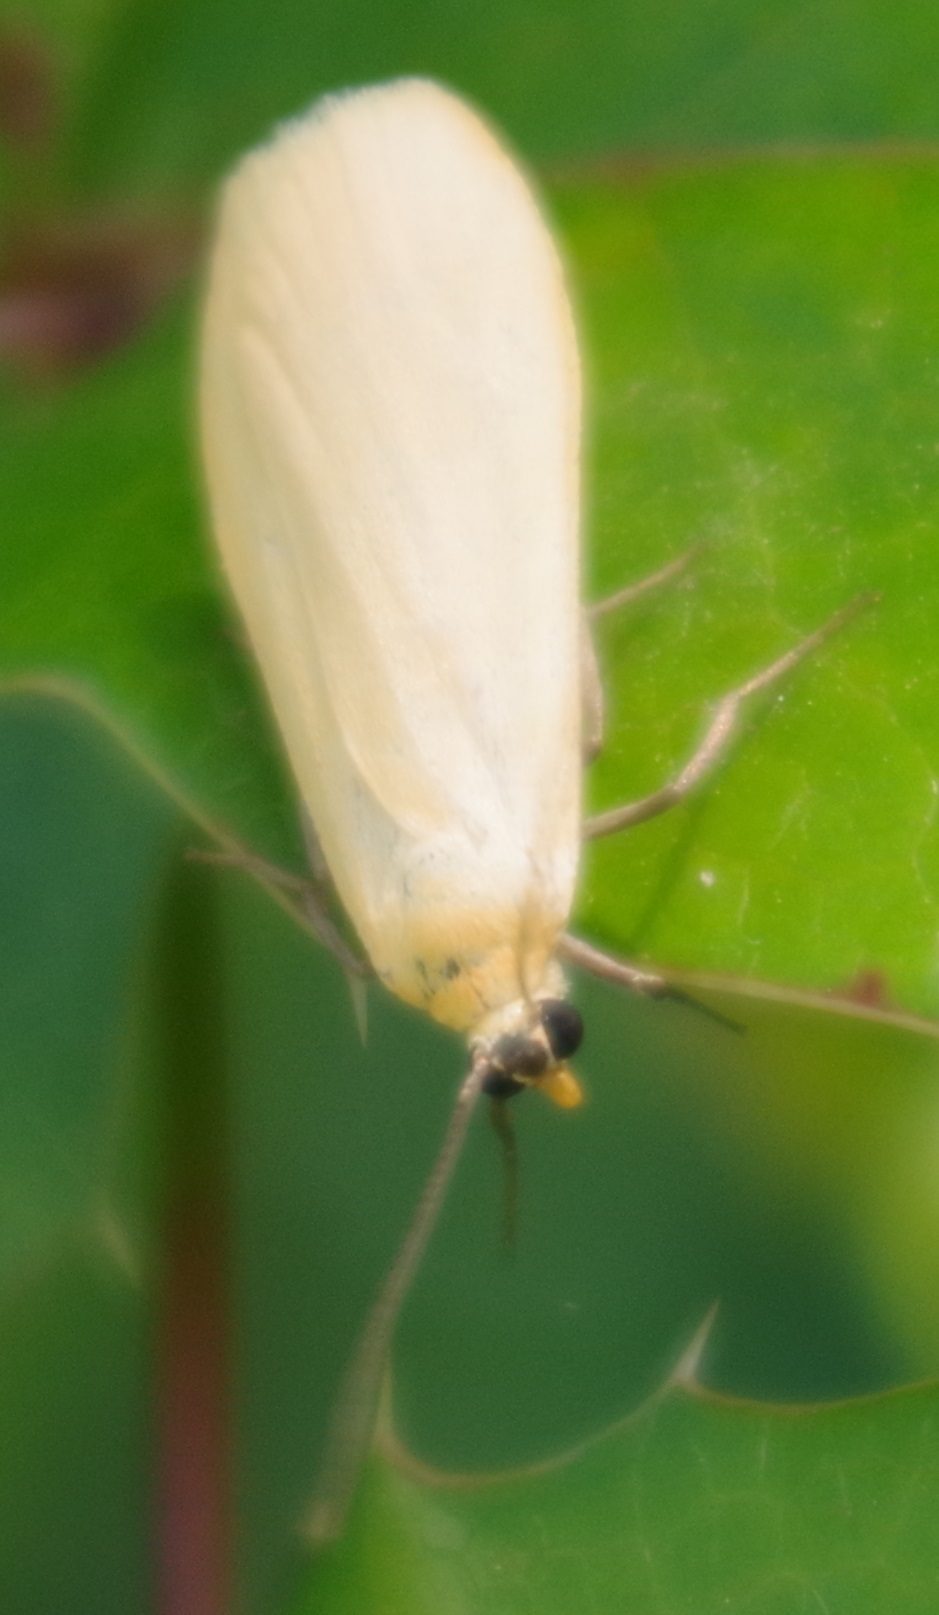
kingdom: Animalia
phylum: Arthropoda
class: Insecta
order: Lepidoptera
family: Erebidae
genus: Wittia
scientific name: Wittia sororcula
